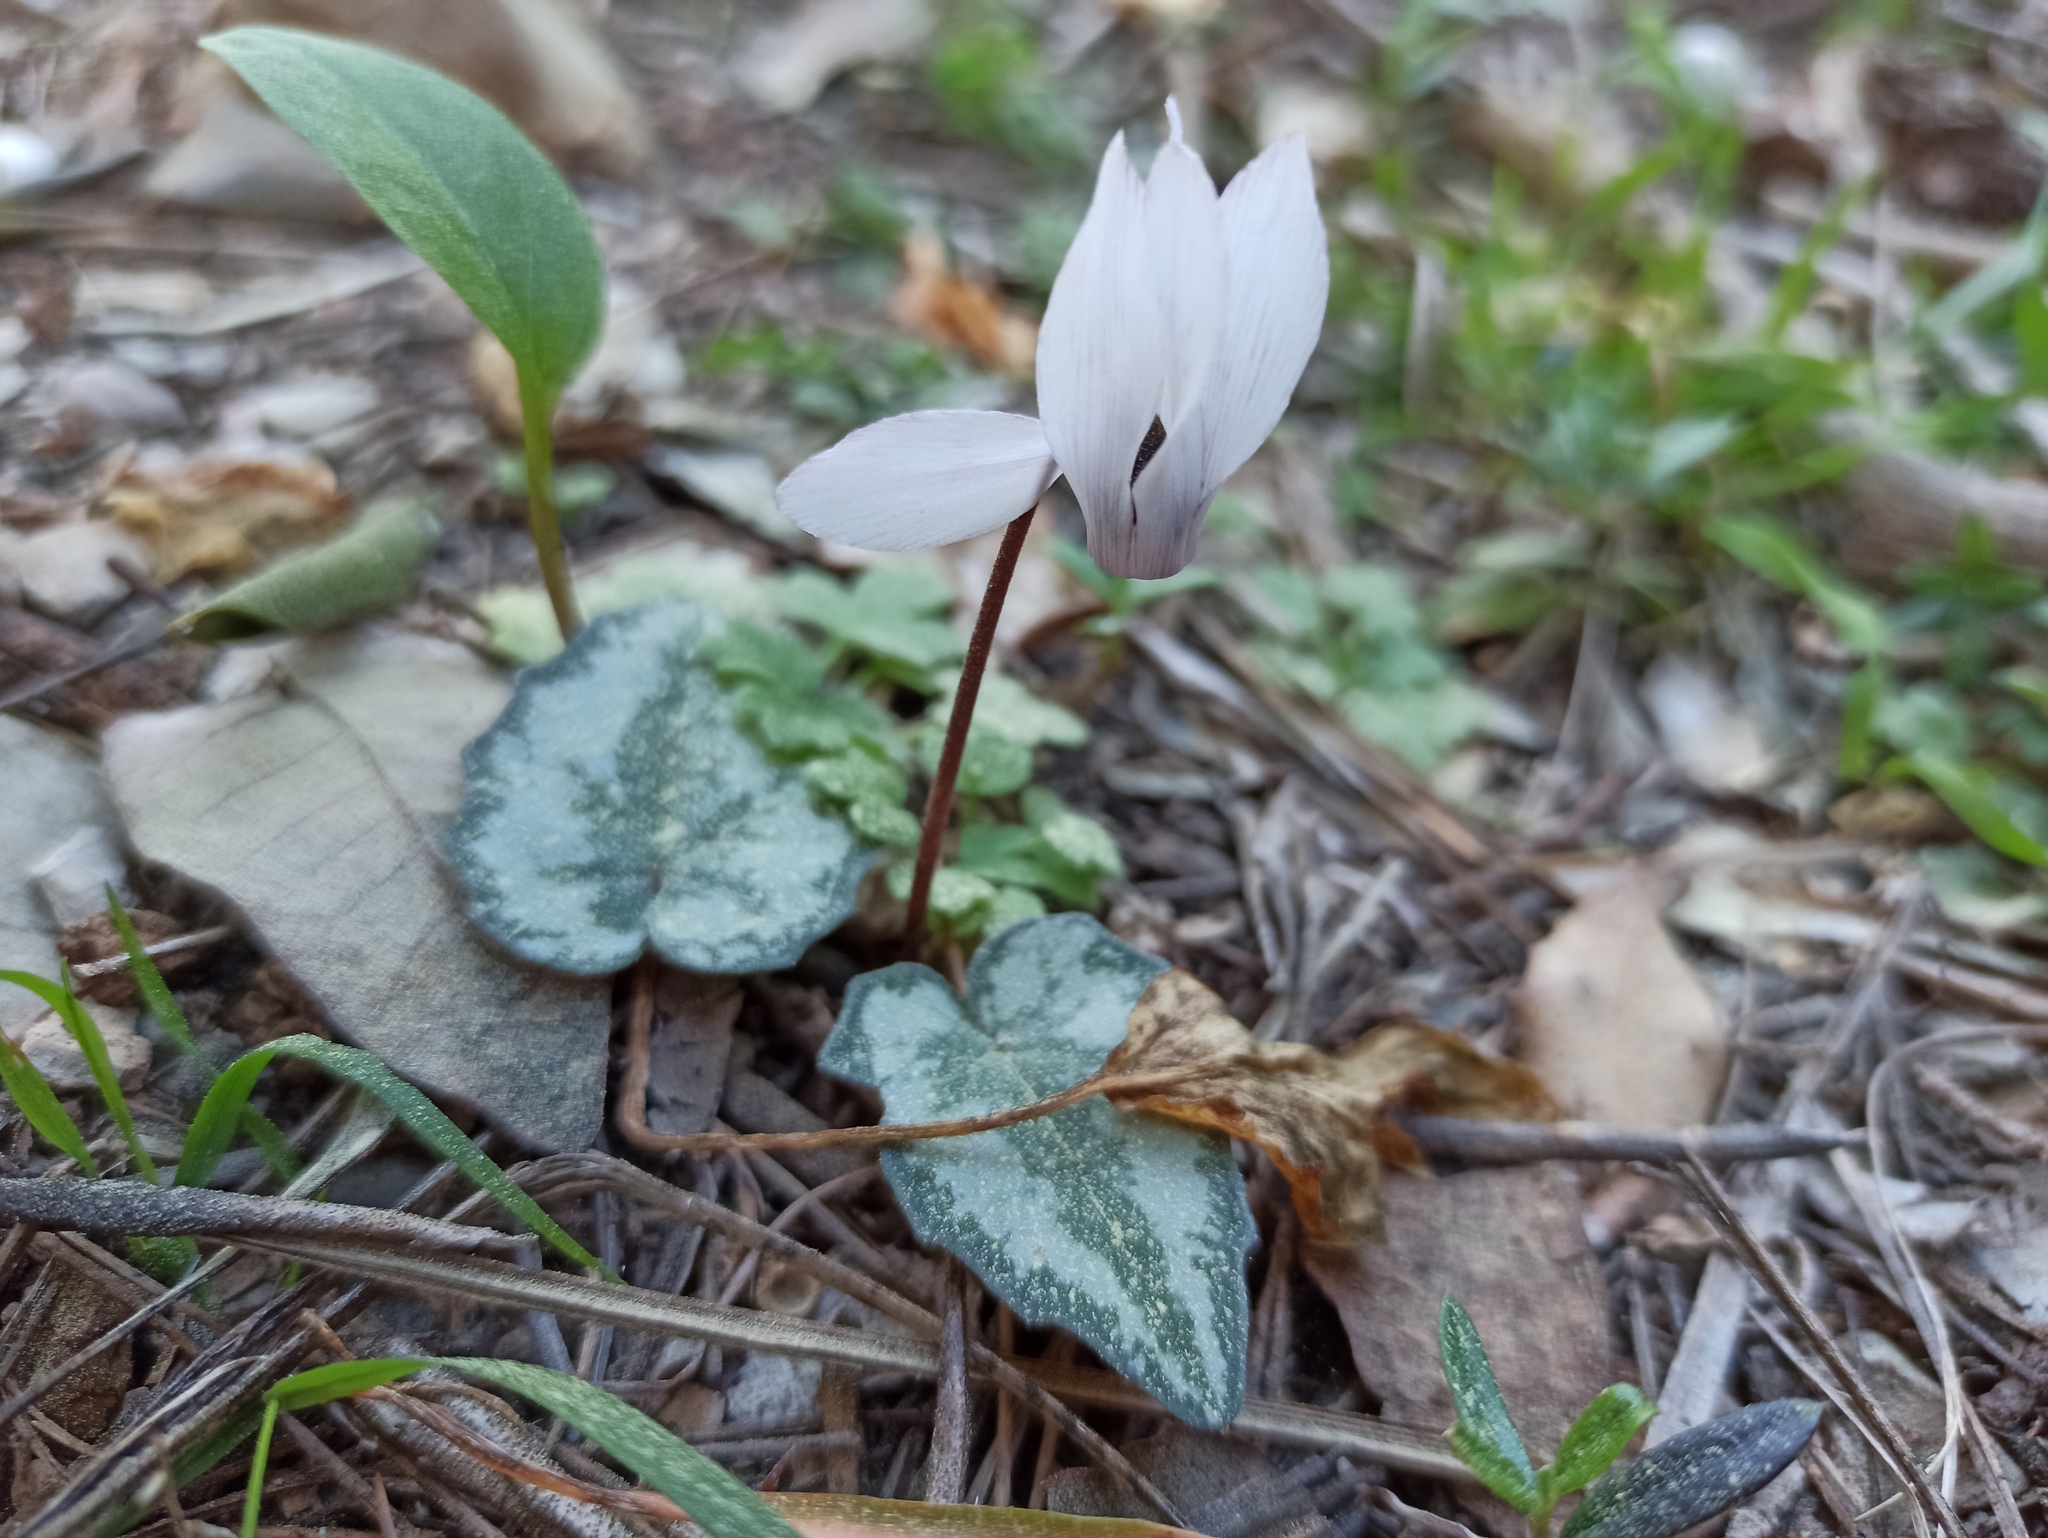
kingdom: Plantae
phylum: Tracheophyta
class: Magnoliopsida
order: Ericales
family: Primulaceae
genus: Cyclamen
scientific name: Cyclamen balearicum
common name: Majorca cyclamen
